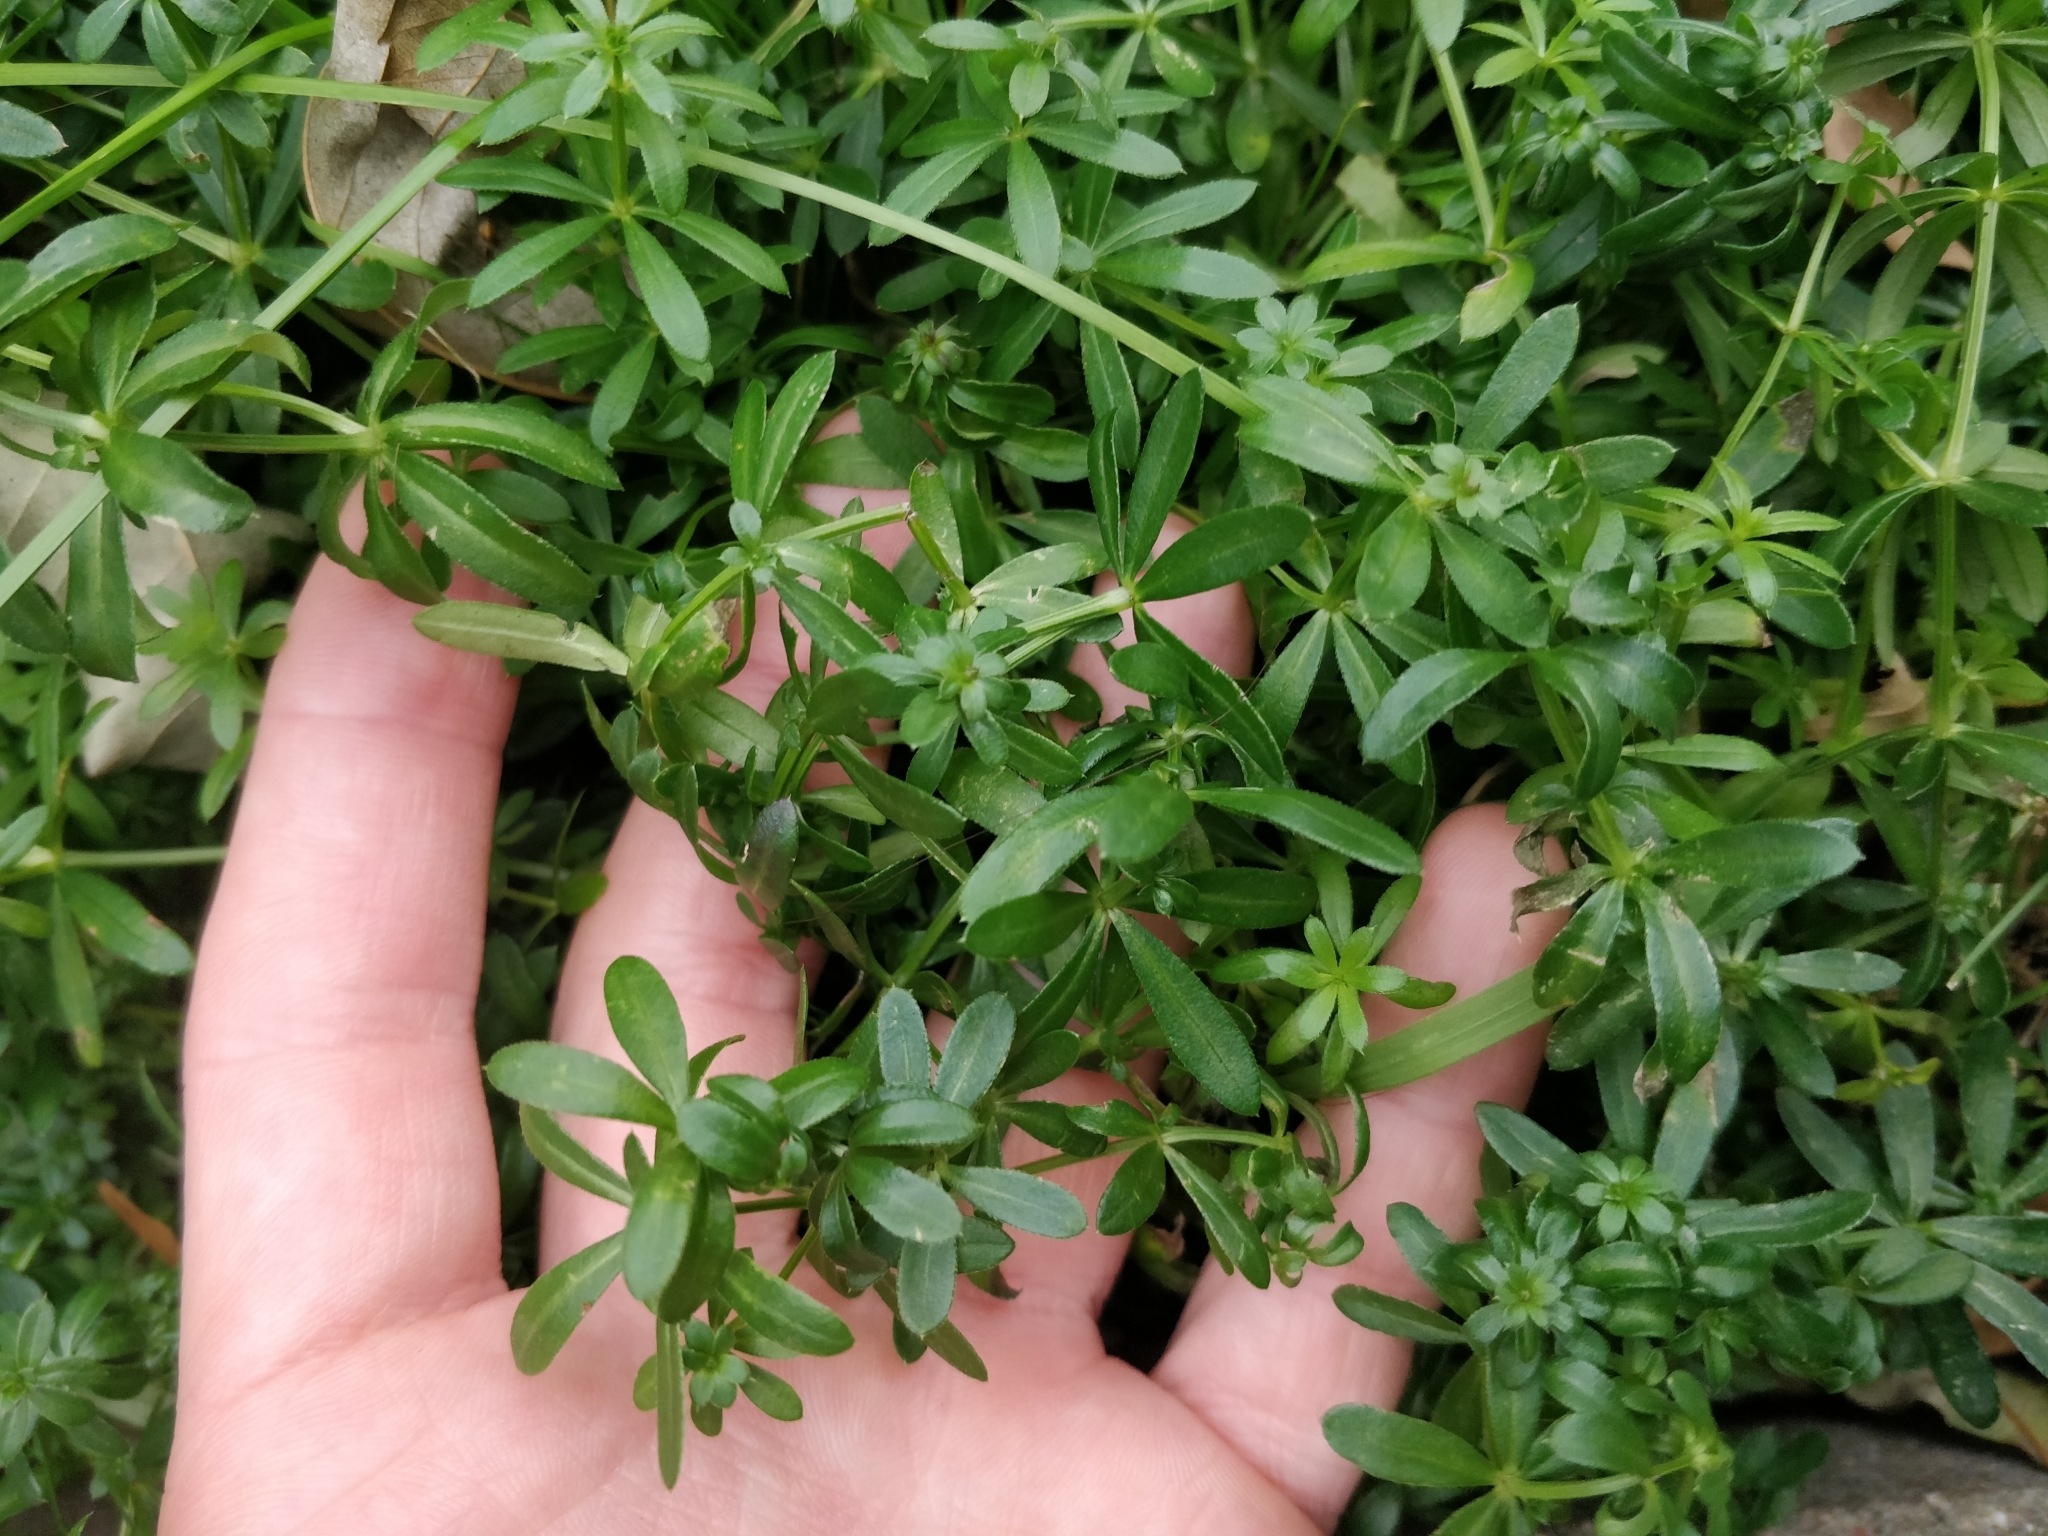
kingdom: Plantae
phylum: Tracheophyta
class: Magnoliopsida
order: Gentianales
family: Rubiaceae
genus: Galium
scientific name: Galium mollugo
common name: Hedge bedstraw
